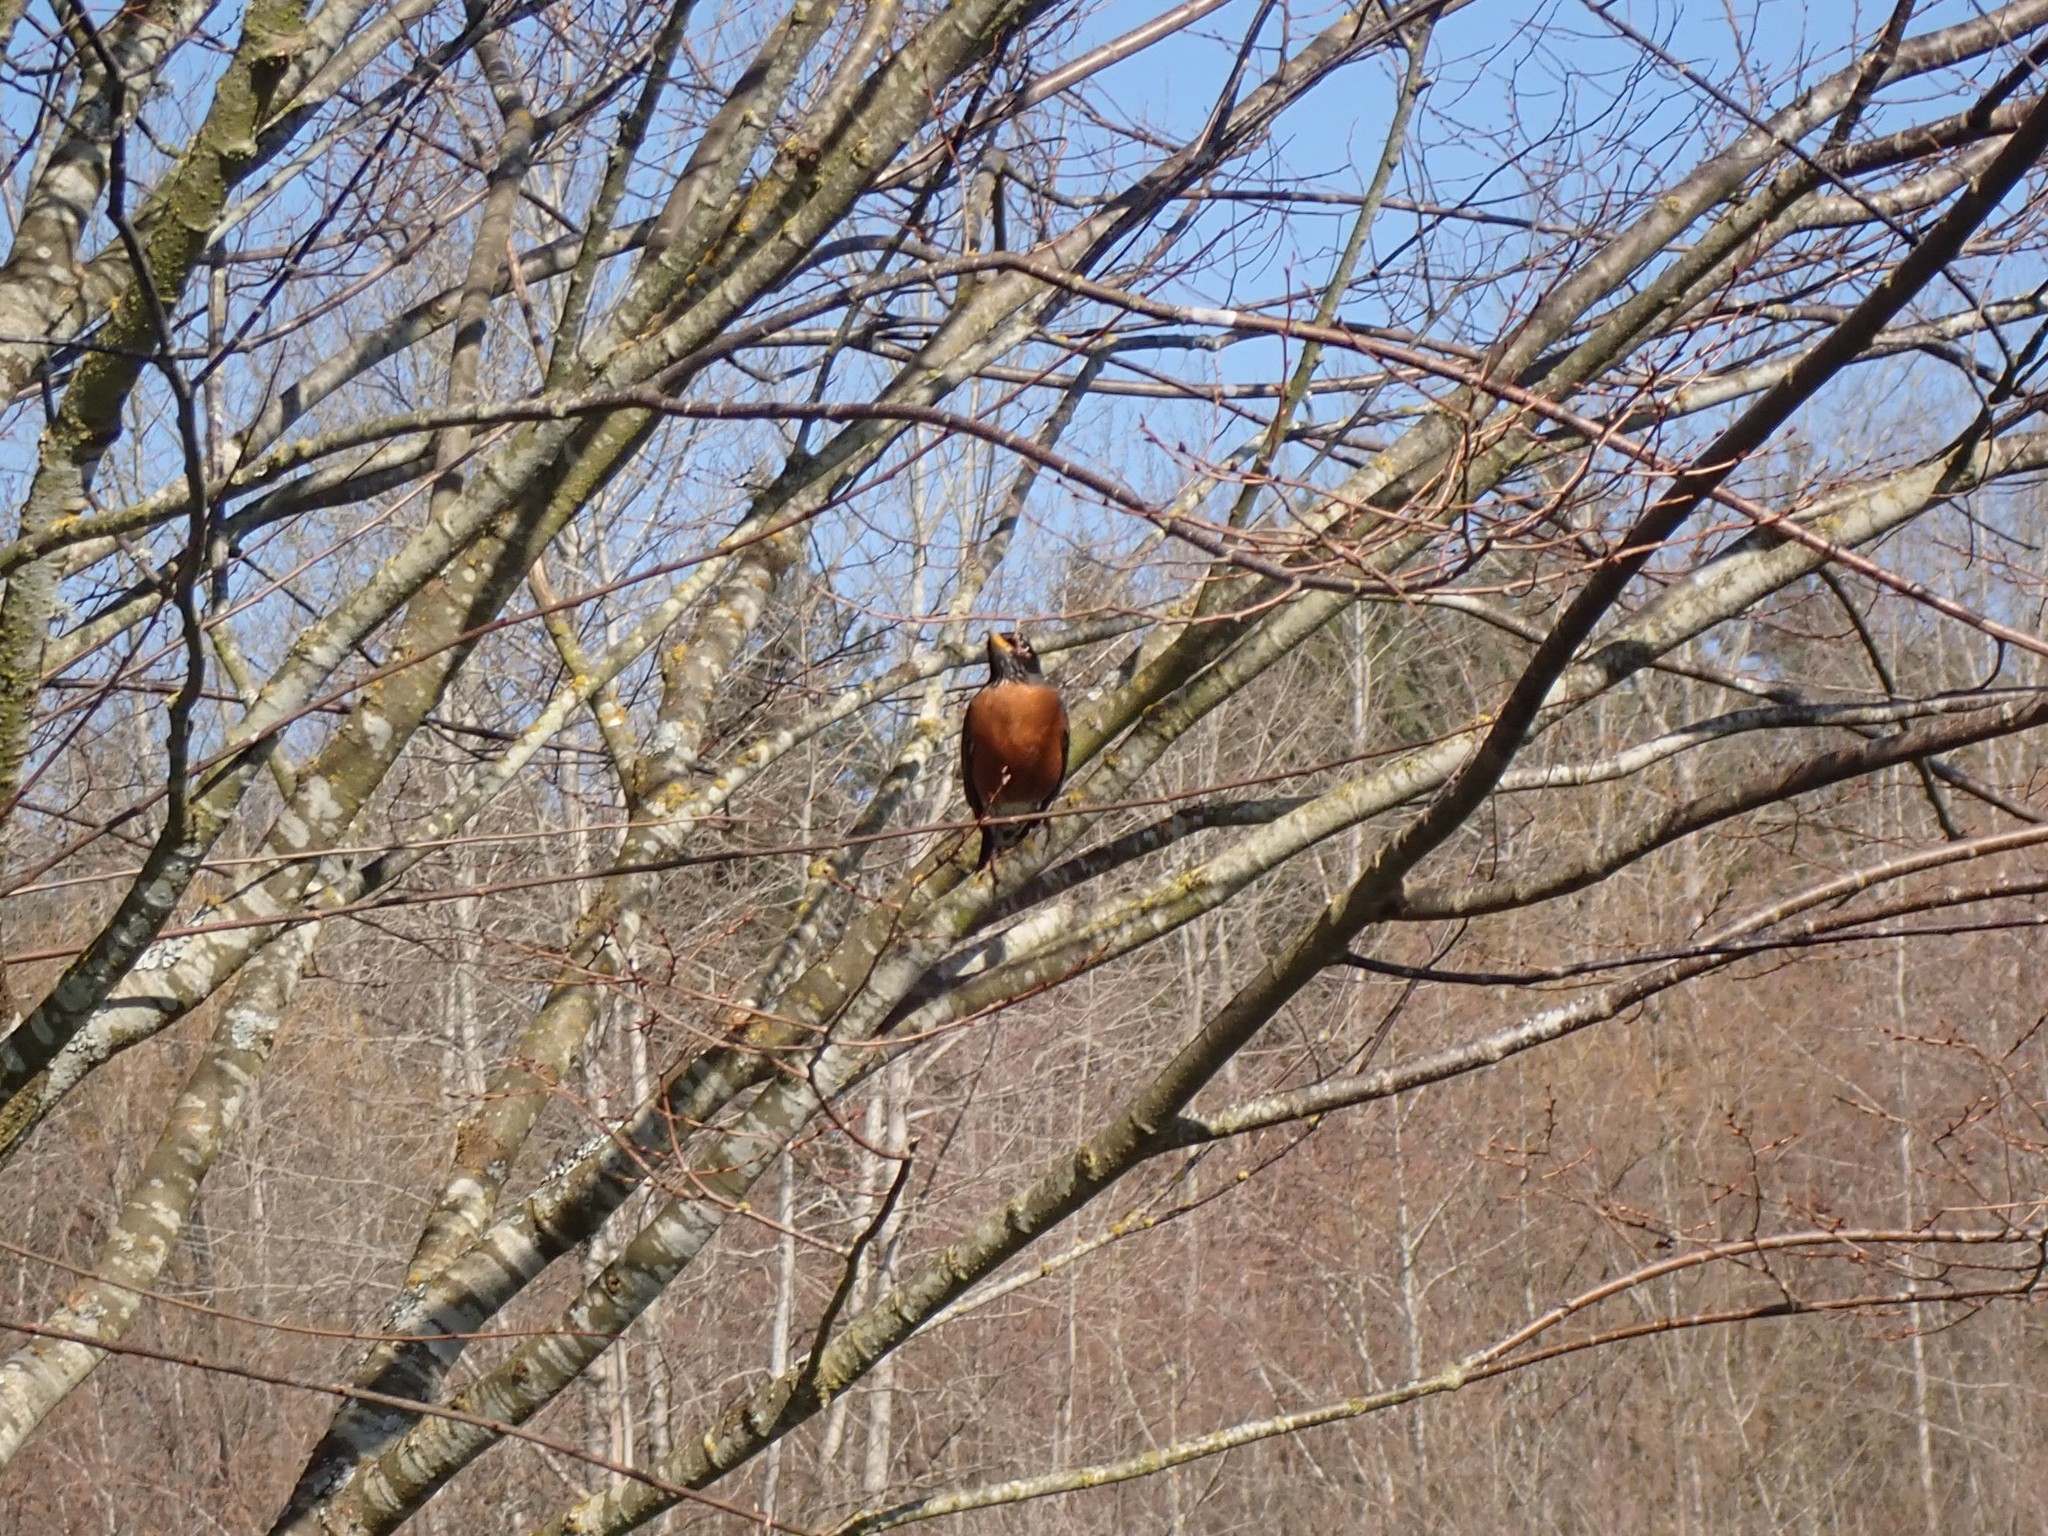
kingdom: Animalia
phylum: Chordata
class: Aves
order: Passeriformes
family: Turdidae
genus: Turdus
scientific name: Turdus migratorius
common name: American robin
